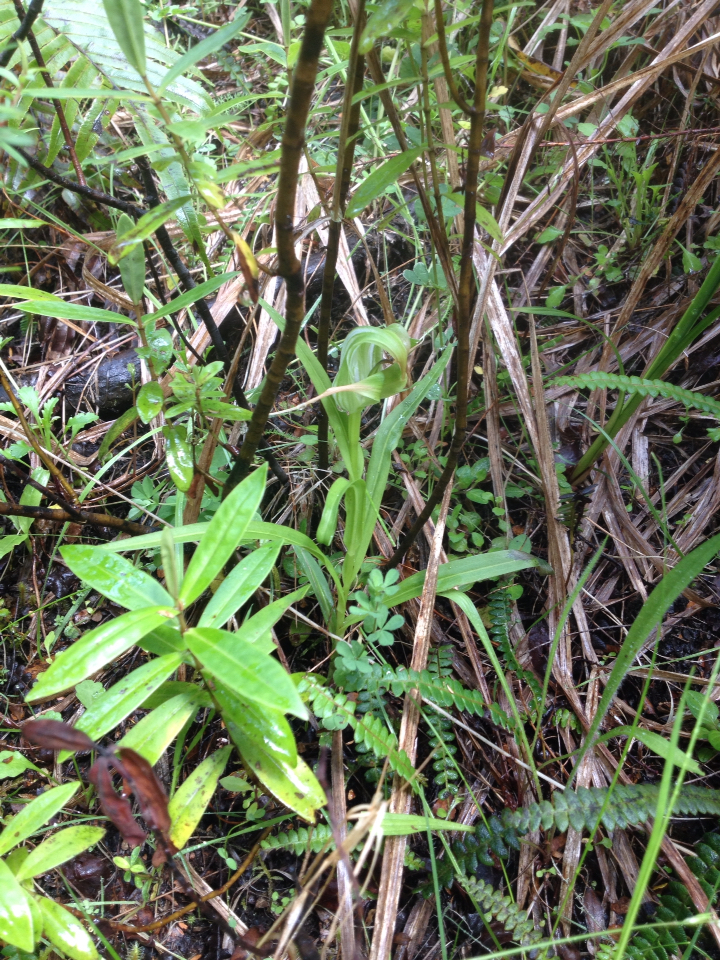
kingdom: Plantae
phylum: Tracheophyta
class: Liliopsida
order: Asparagales
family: Orchidaceae
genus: Pterostylis
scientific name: Pterostylis patens
